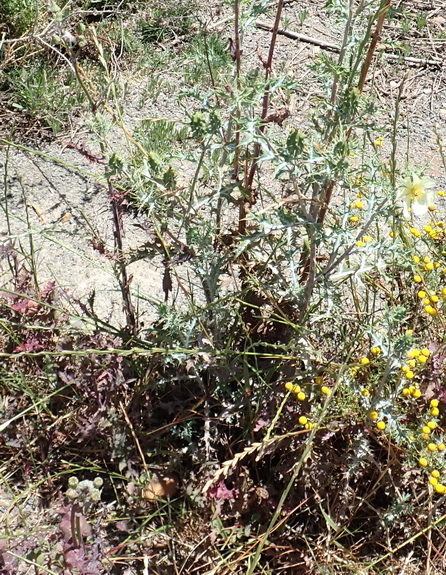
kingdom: Plantae
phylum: Tracheophyta
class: Magnoliopsida
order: Ranunculales
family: Papaveraceae
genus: Argemone
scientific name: Argemone ochroleuca
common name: White-flower mexican-poppy
